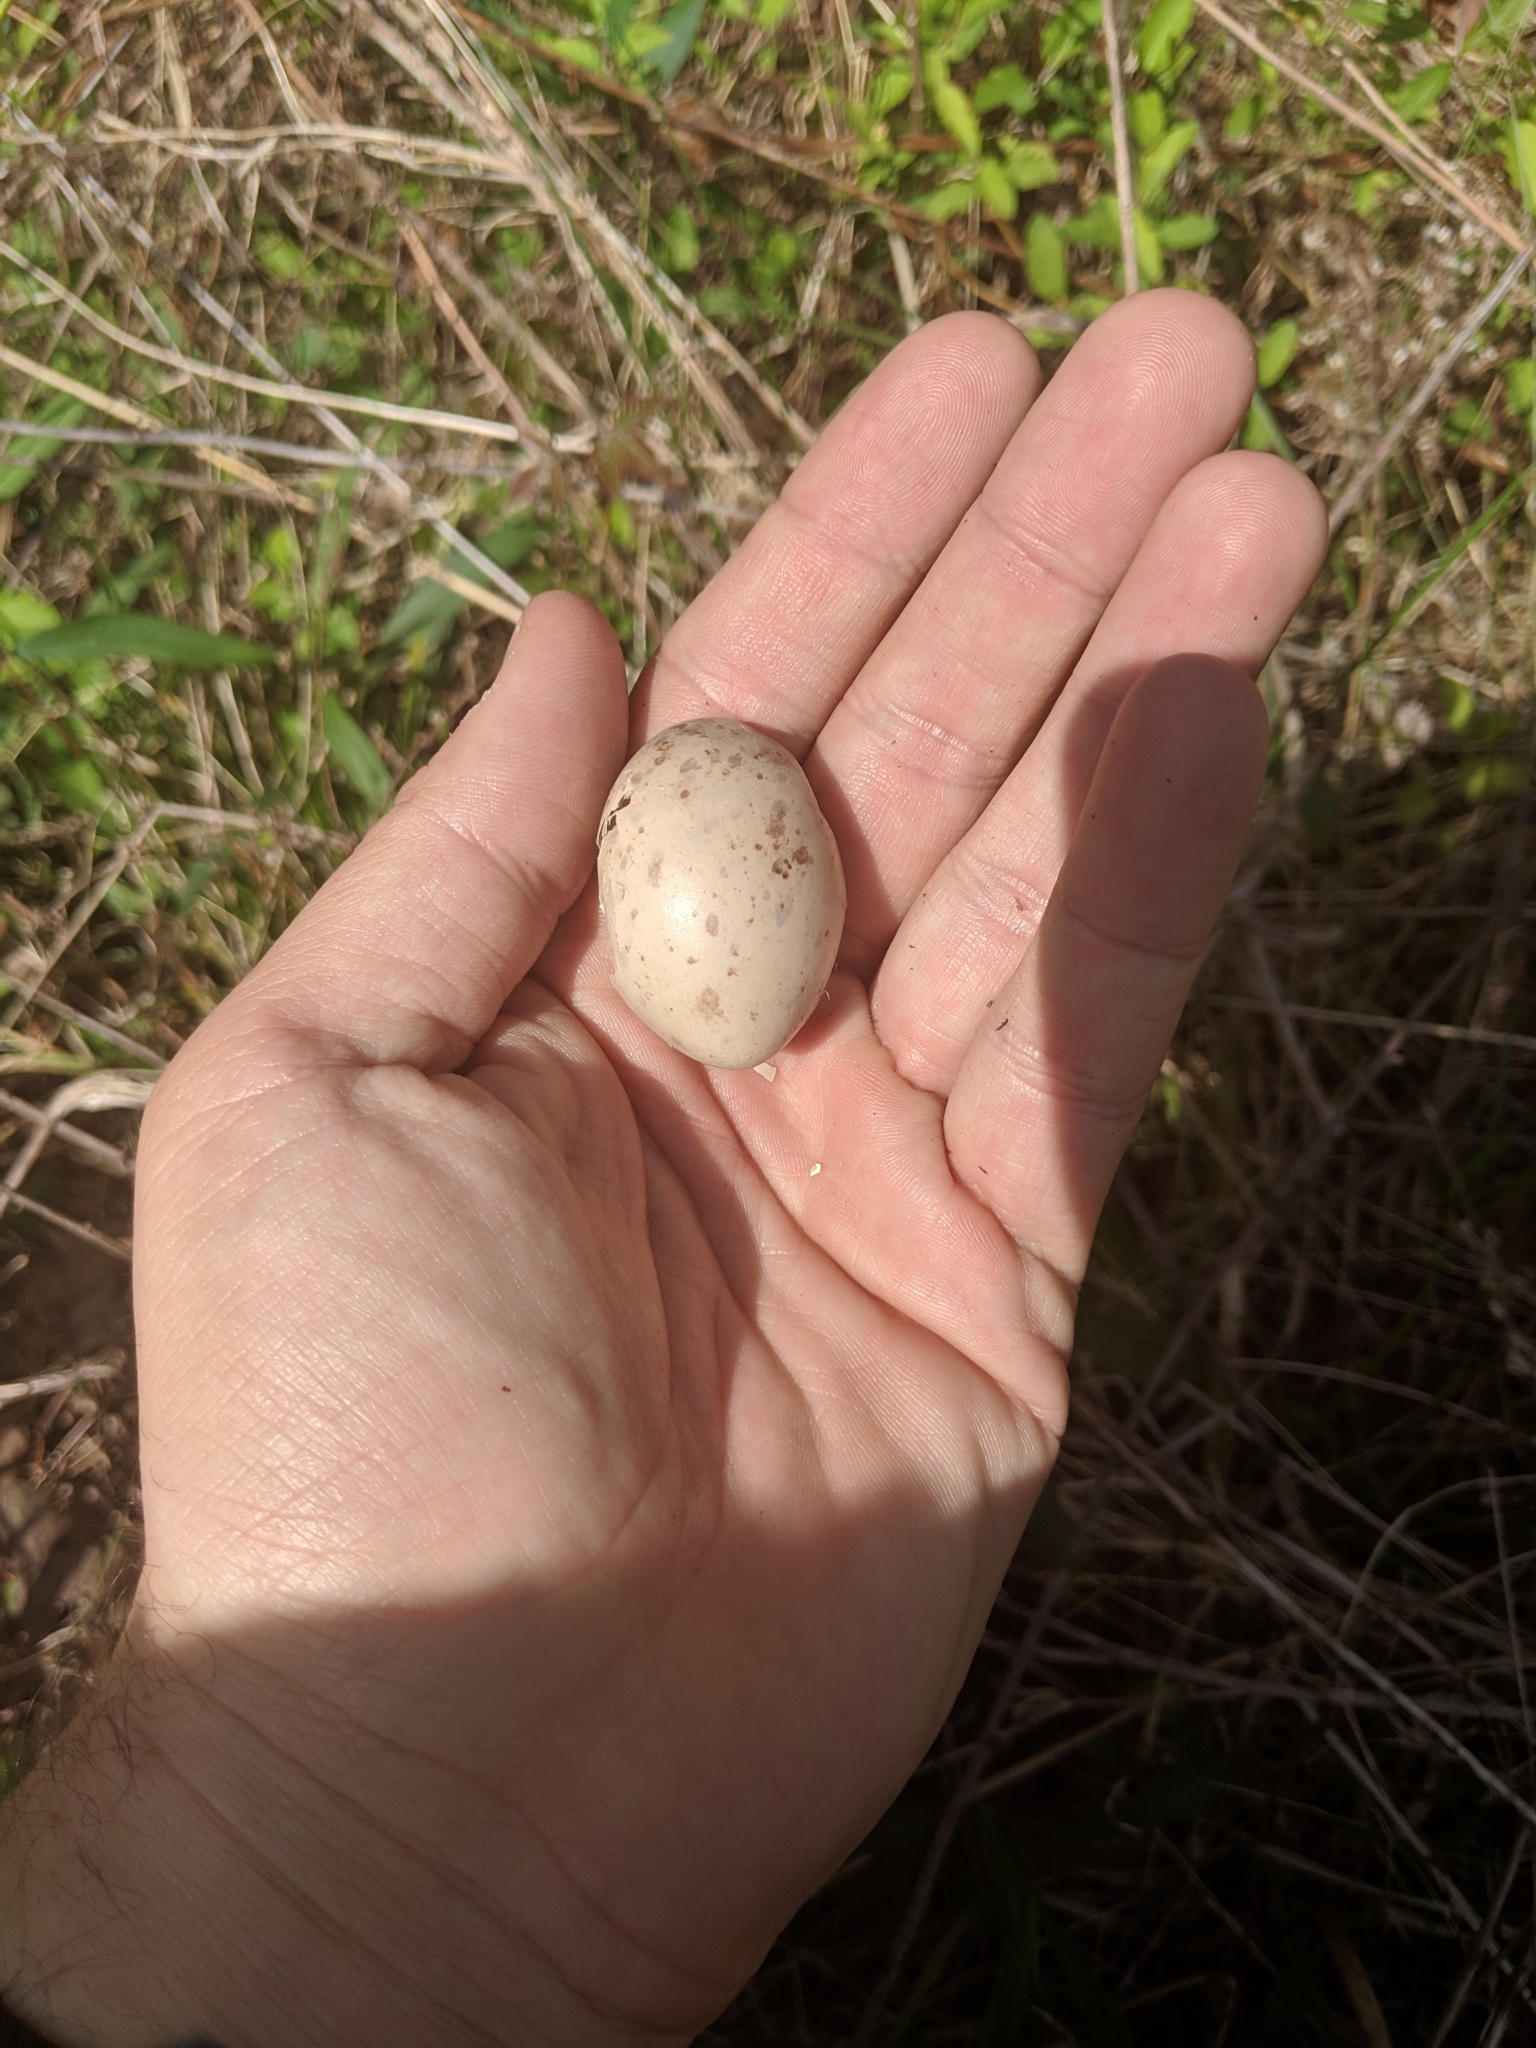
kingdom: Animalia
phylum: Chordata
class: Aves
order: Charadriiformes
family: Scolopacidae
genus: Scolopax
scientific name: Scolopax minor
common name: American woodcock
